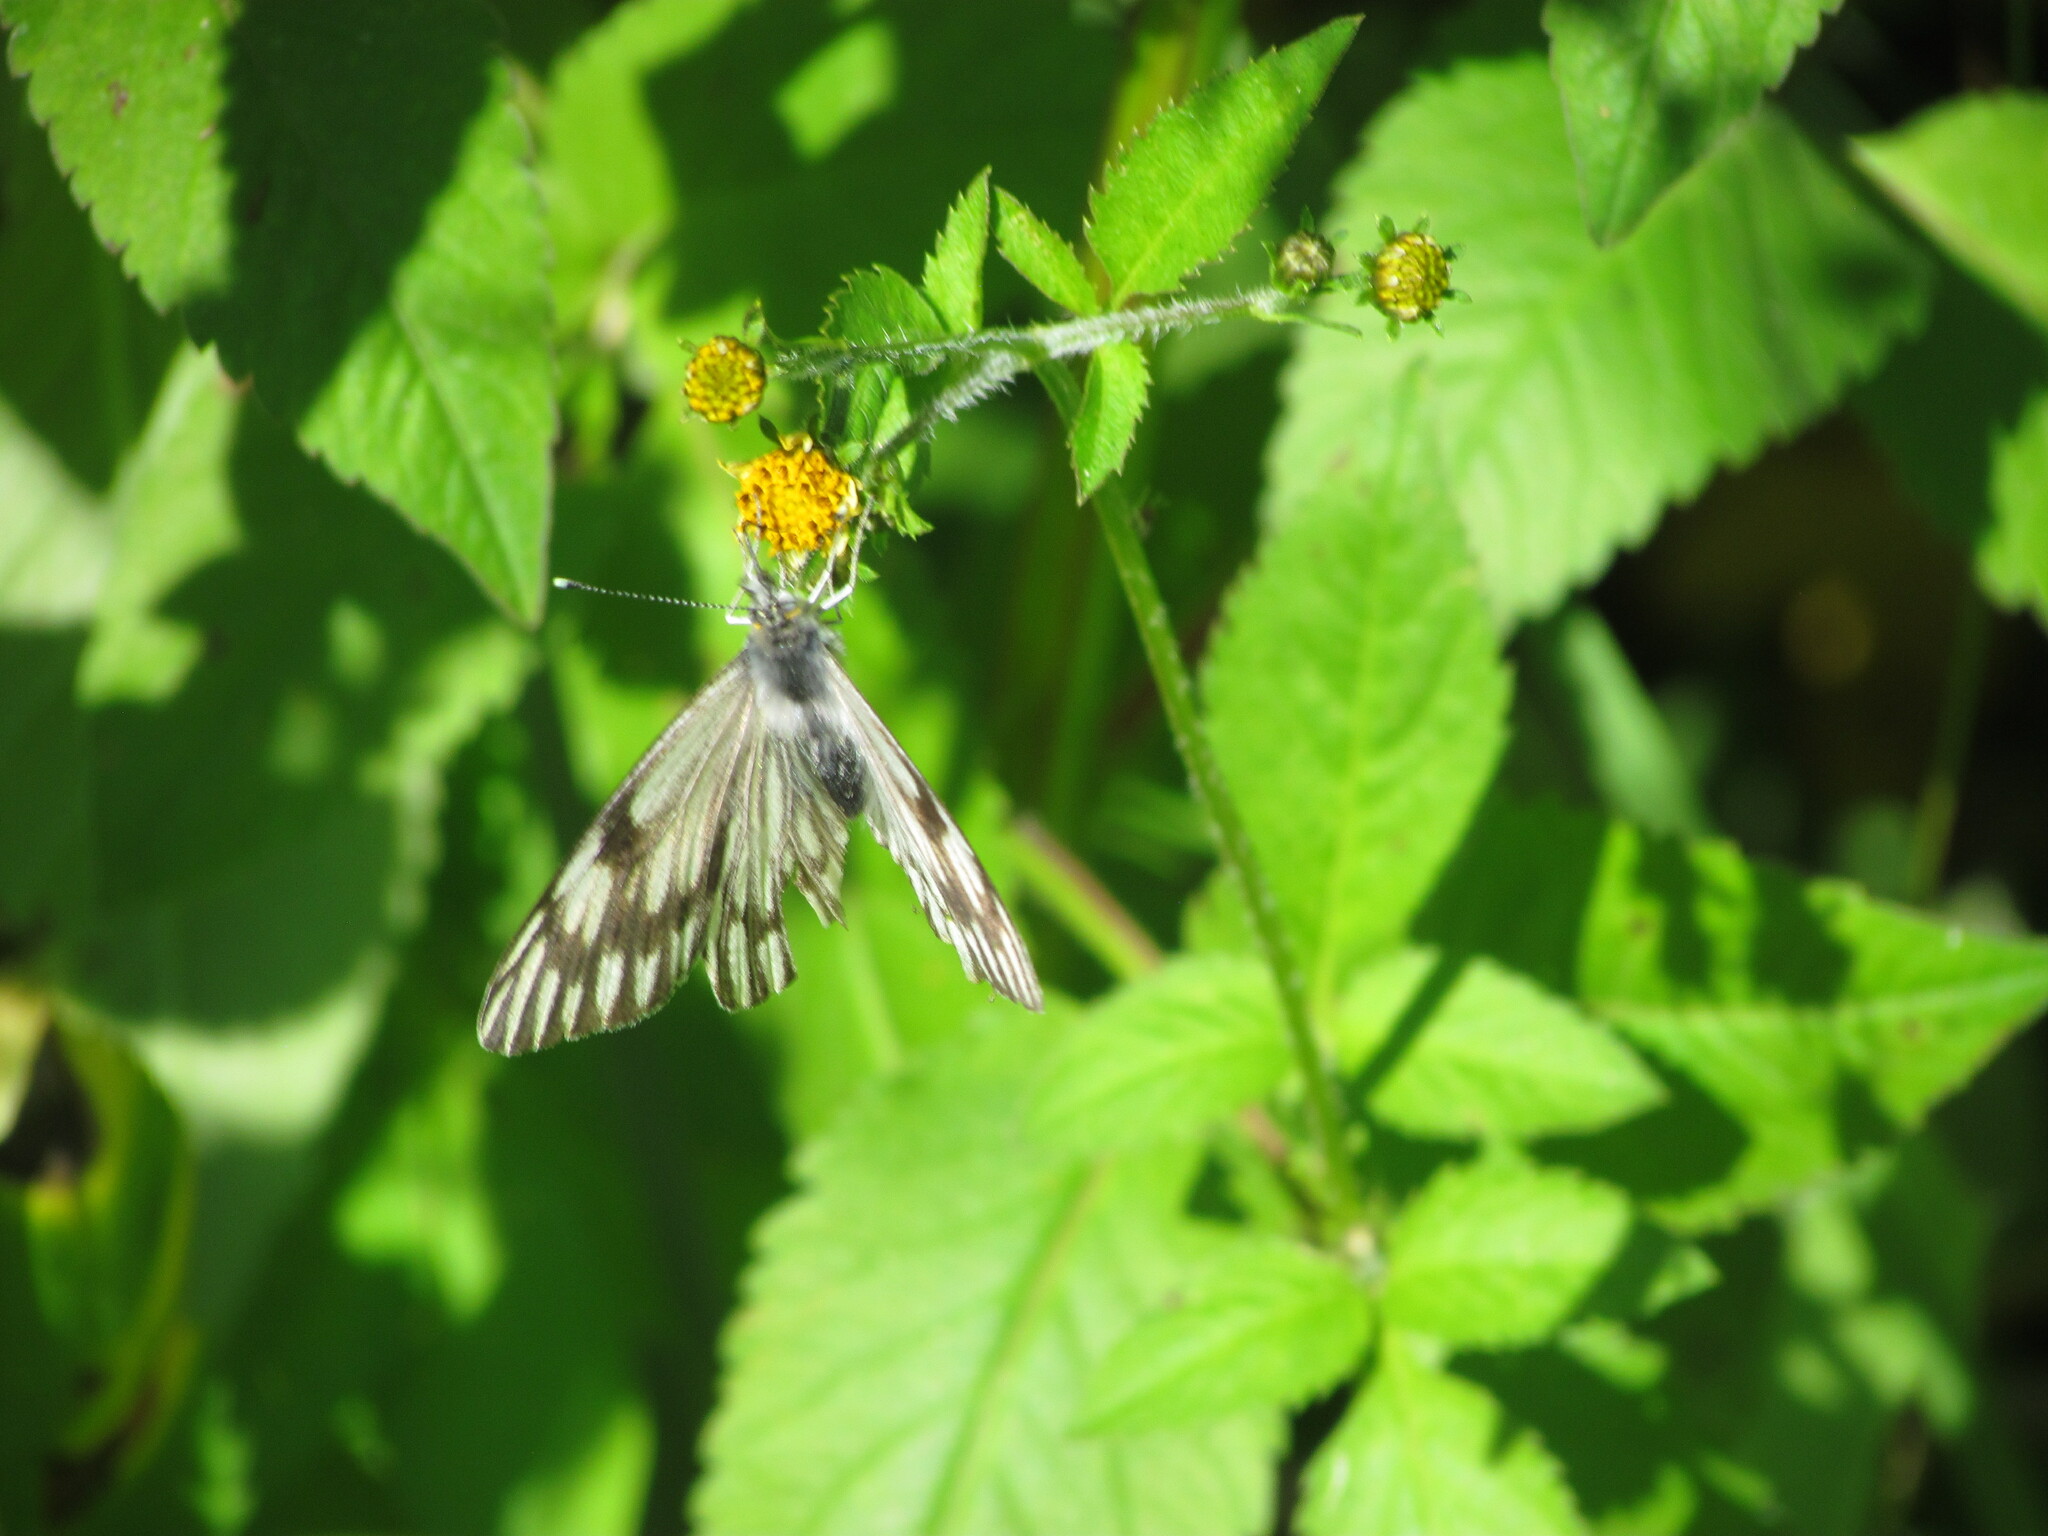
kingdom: Animalia
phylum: Arthropoda
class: Insecta
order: Lepidoptera
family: Pieridae
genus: Tatochila
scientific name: Tatochila mercedis
